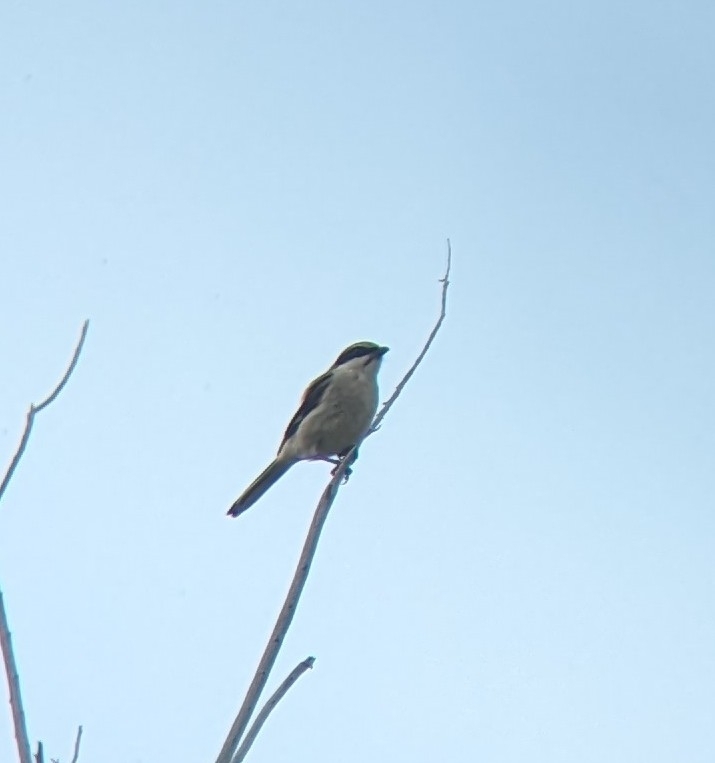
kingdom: Animalia
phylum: Chordata
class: Aves
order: Passeriformes
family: Laniidae
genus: Lanius
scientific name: Lanius ludovicianus
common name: Loggerhead shrike
